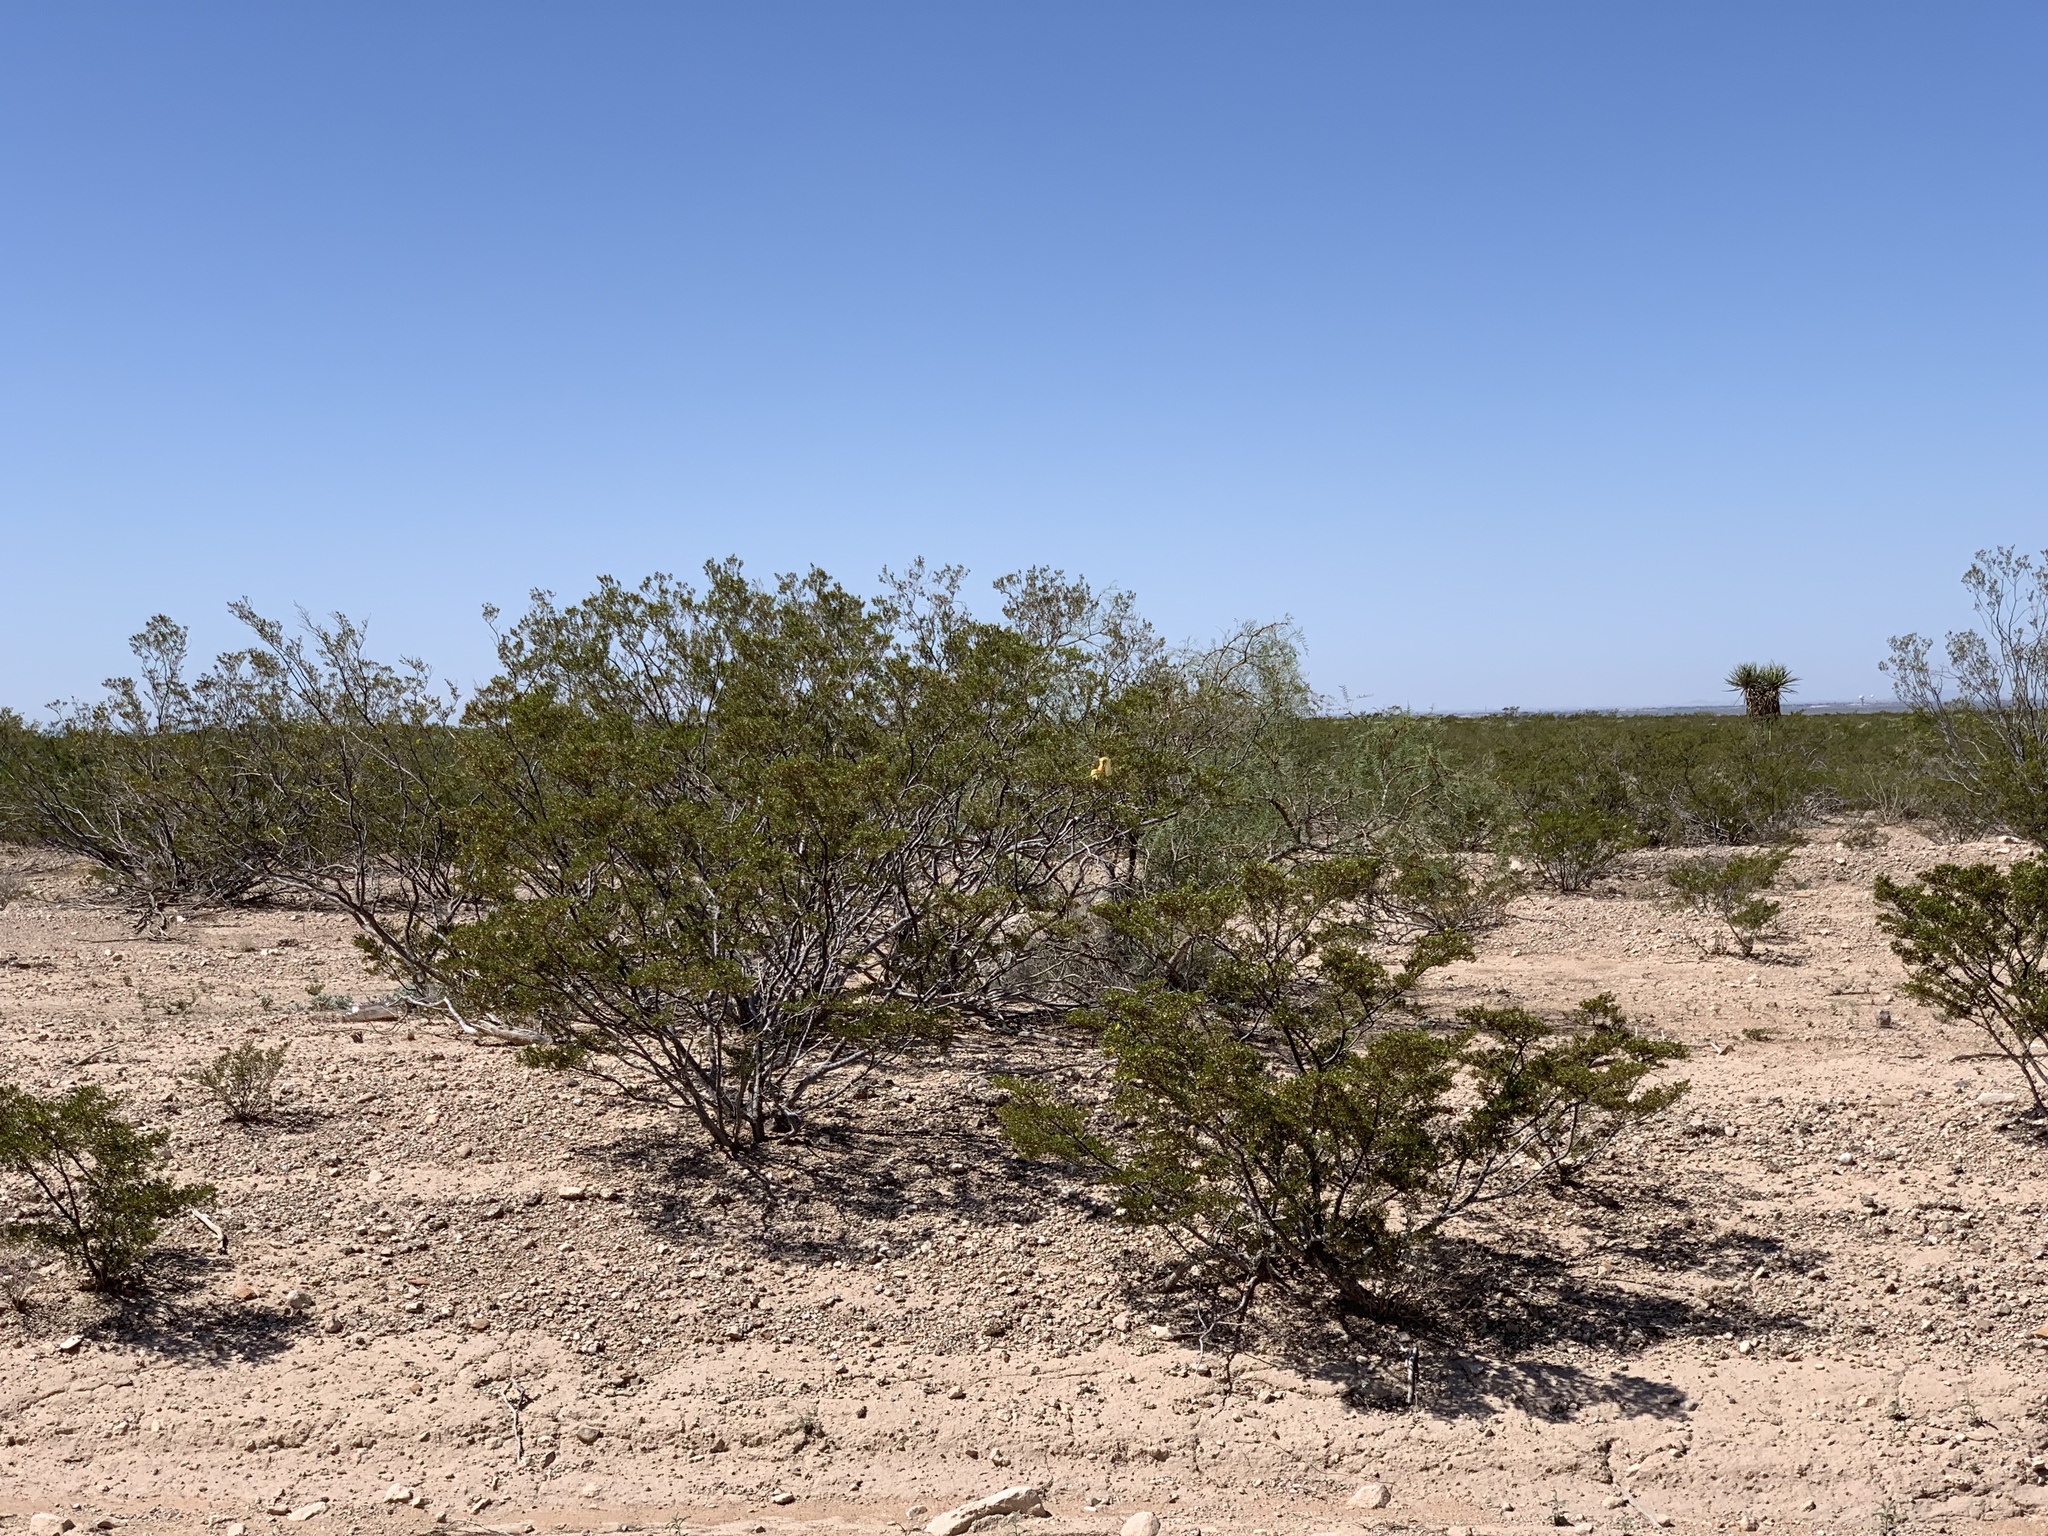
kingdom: Plantae
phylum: Tracheophyta
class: Magnoliopsida
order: Zygophyllales
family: Zygophyllaceae
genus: Larrea
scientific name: Larrea tridentata
